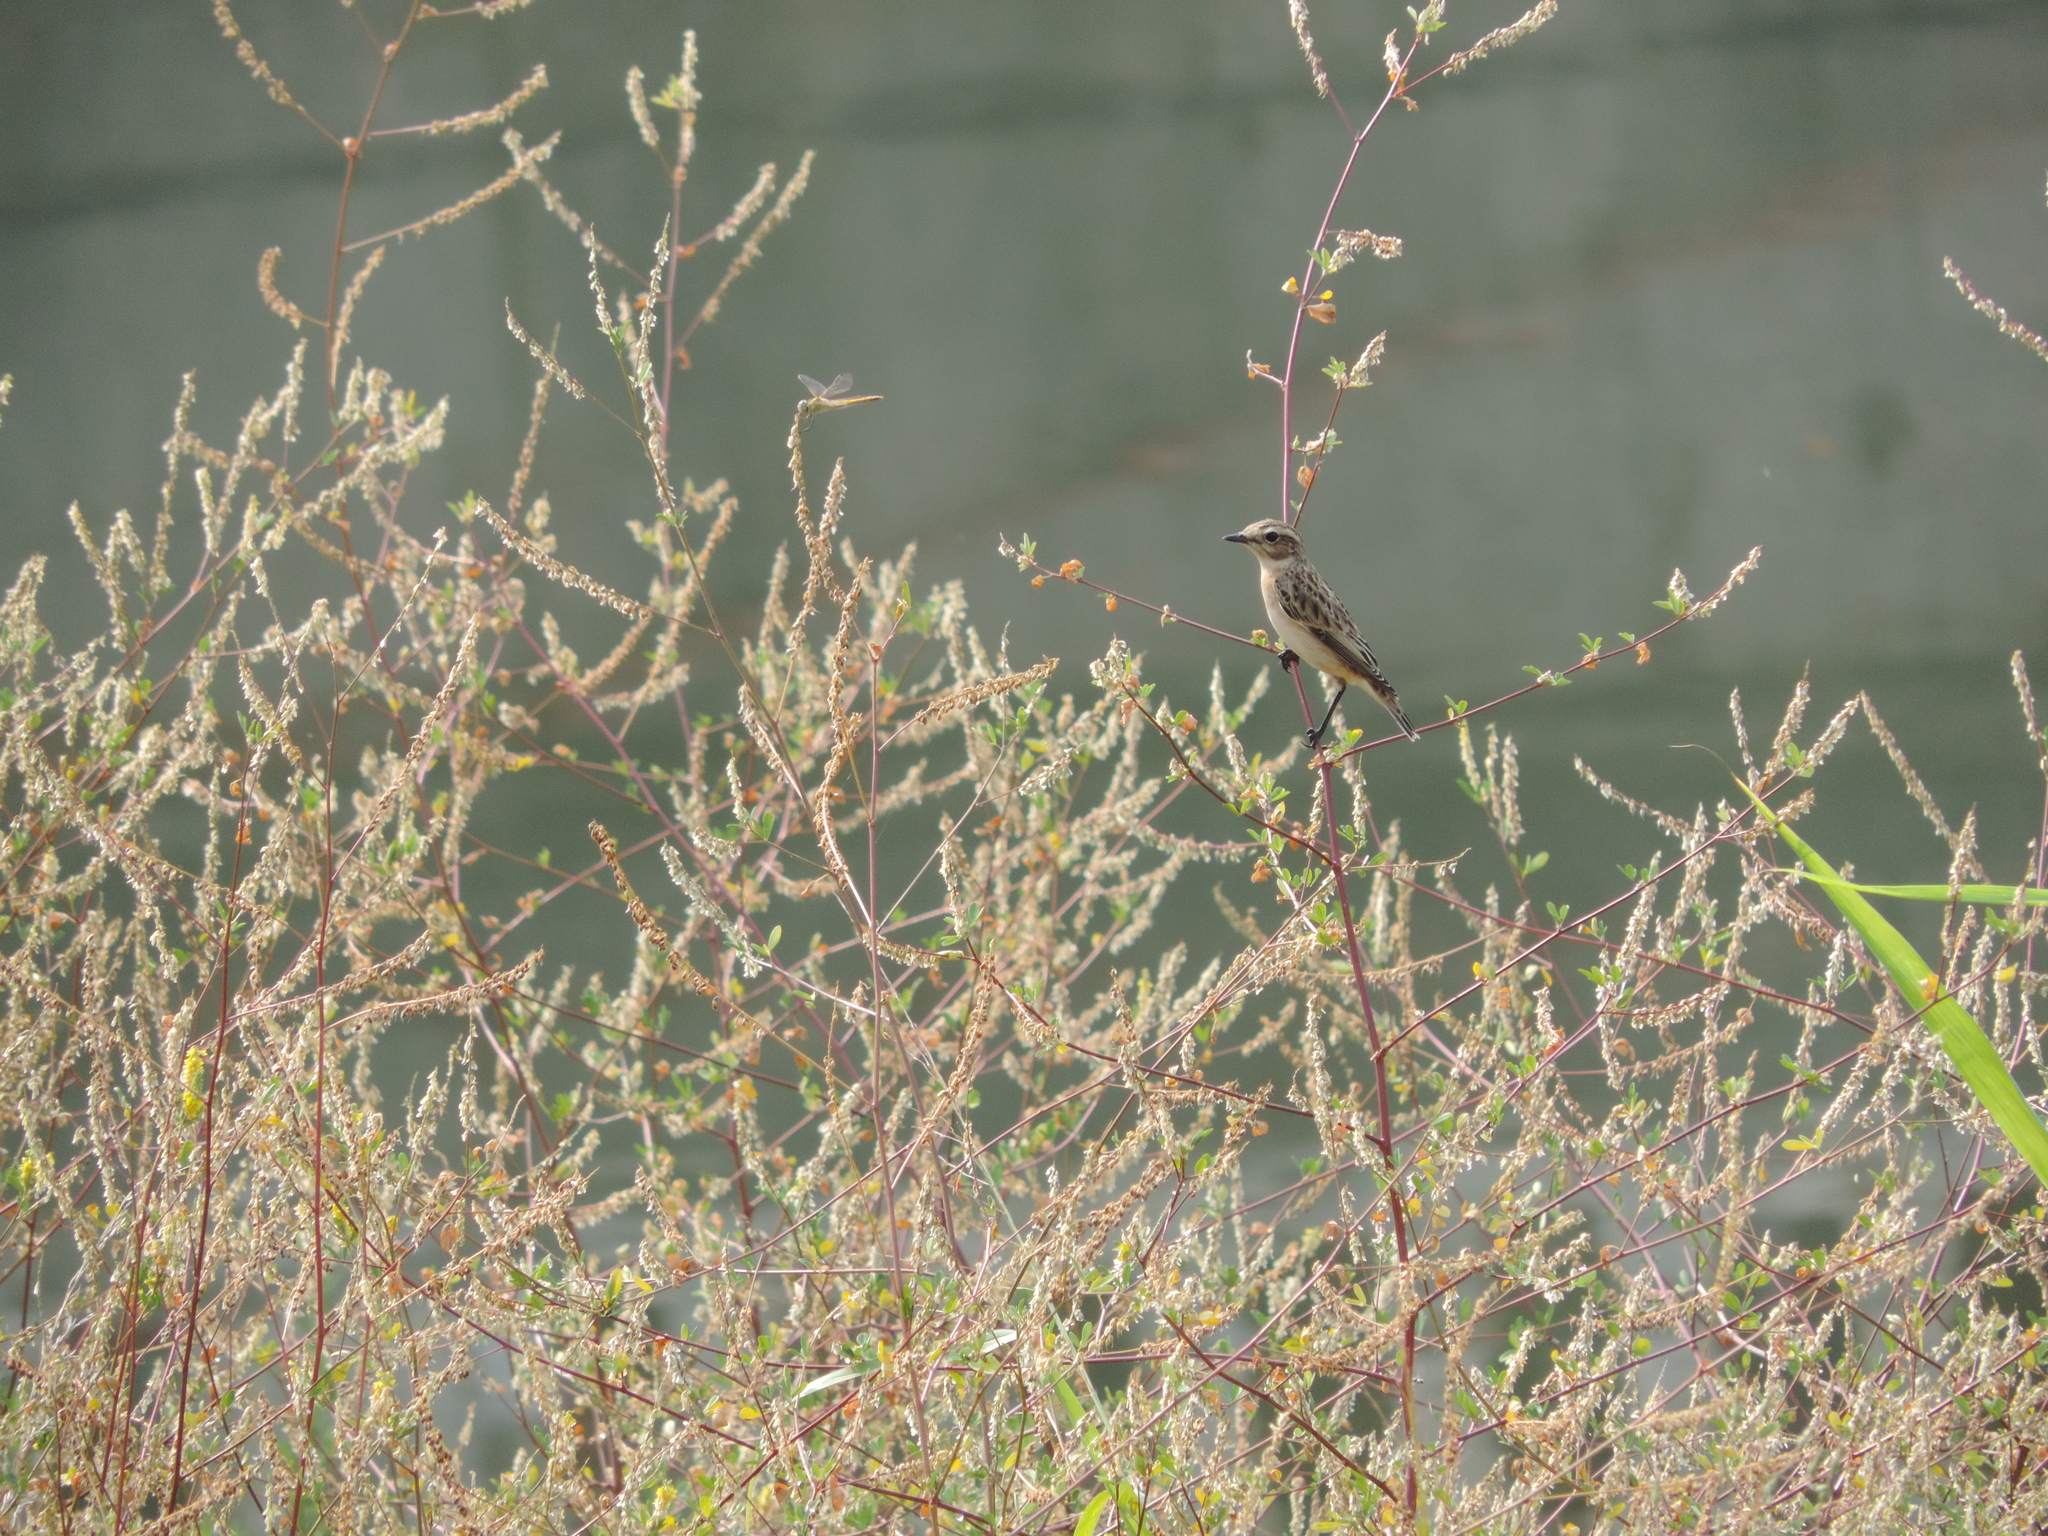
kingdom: Animalia
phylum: Chordata
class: Aves
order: Passeriformes
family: Muscicapidae
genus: Saxicola
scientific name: Saxicola rubetra
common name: Whinchat
